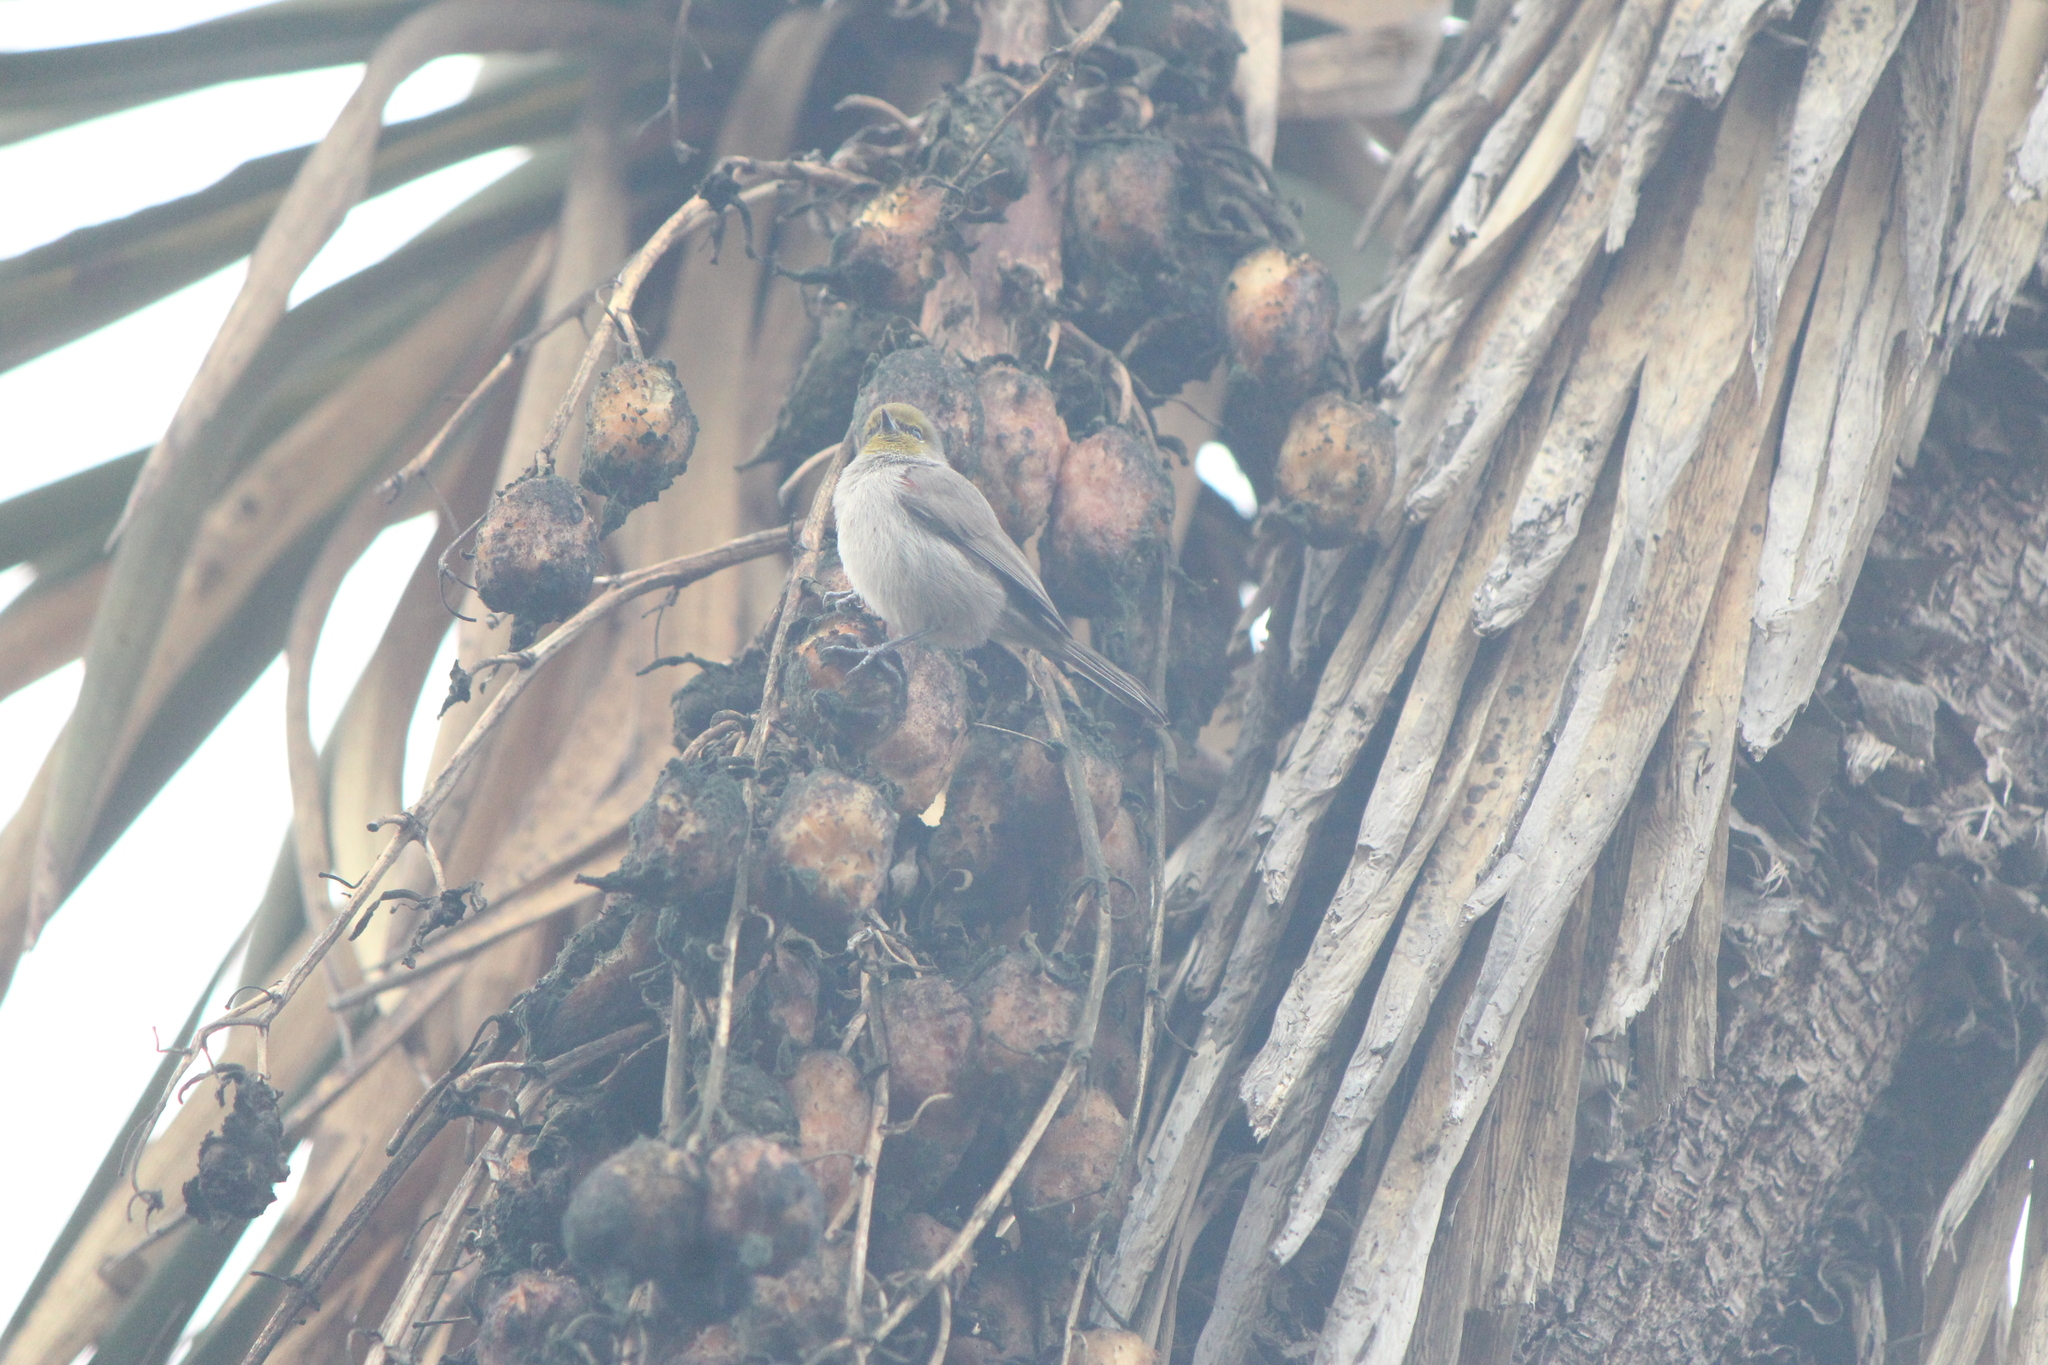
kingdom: Animalia
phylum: Chordata
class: Aves
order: Passeriformes
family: Remizidae
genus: Auriparus
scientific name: Auriparus flaviceps
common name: Verdin
